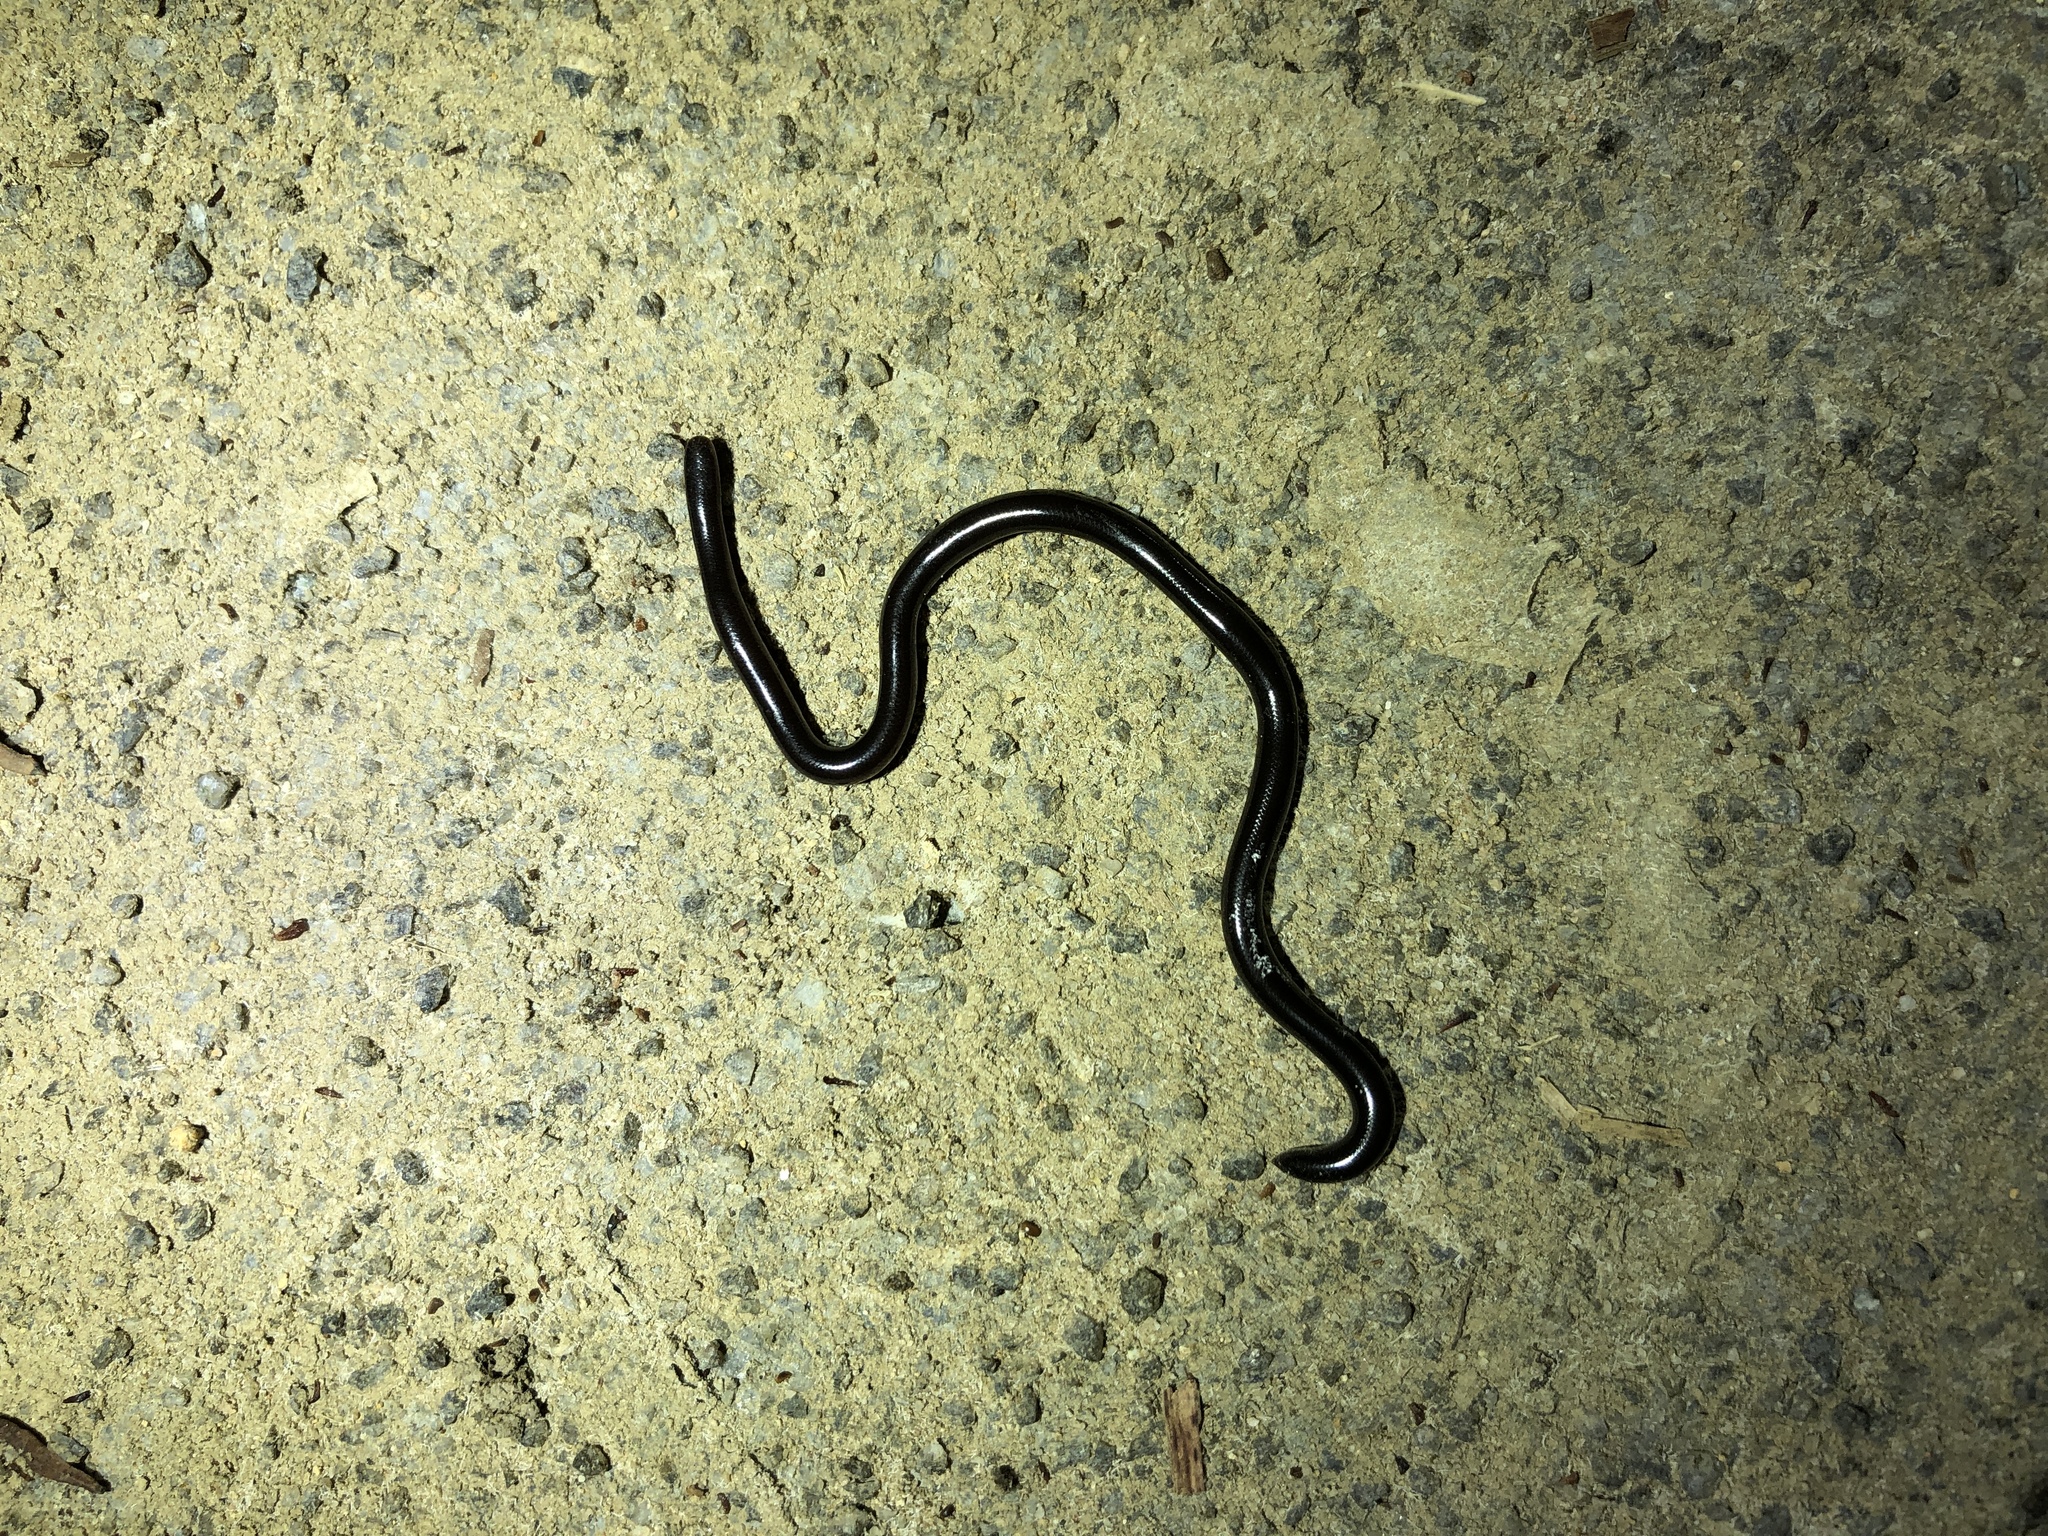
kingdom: Animalia
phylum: Chordata
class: Squamata
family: Typhlopidae
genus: Indotyphlops
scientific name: Indotyphlops braminus
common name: Brahminy blindsnake
